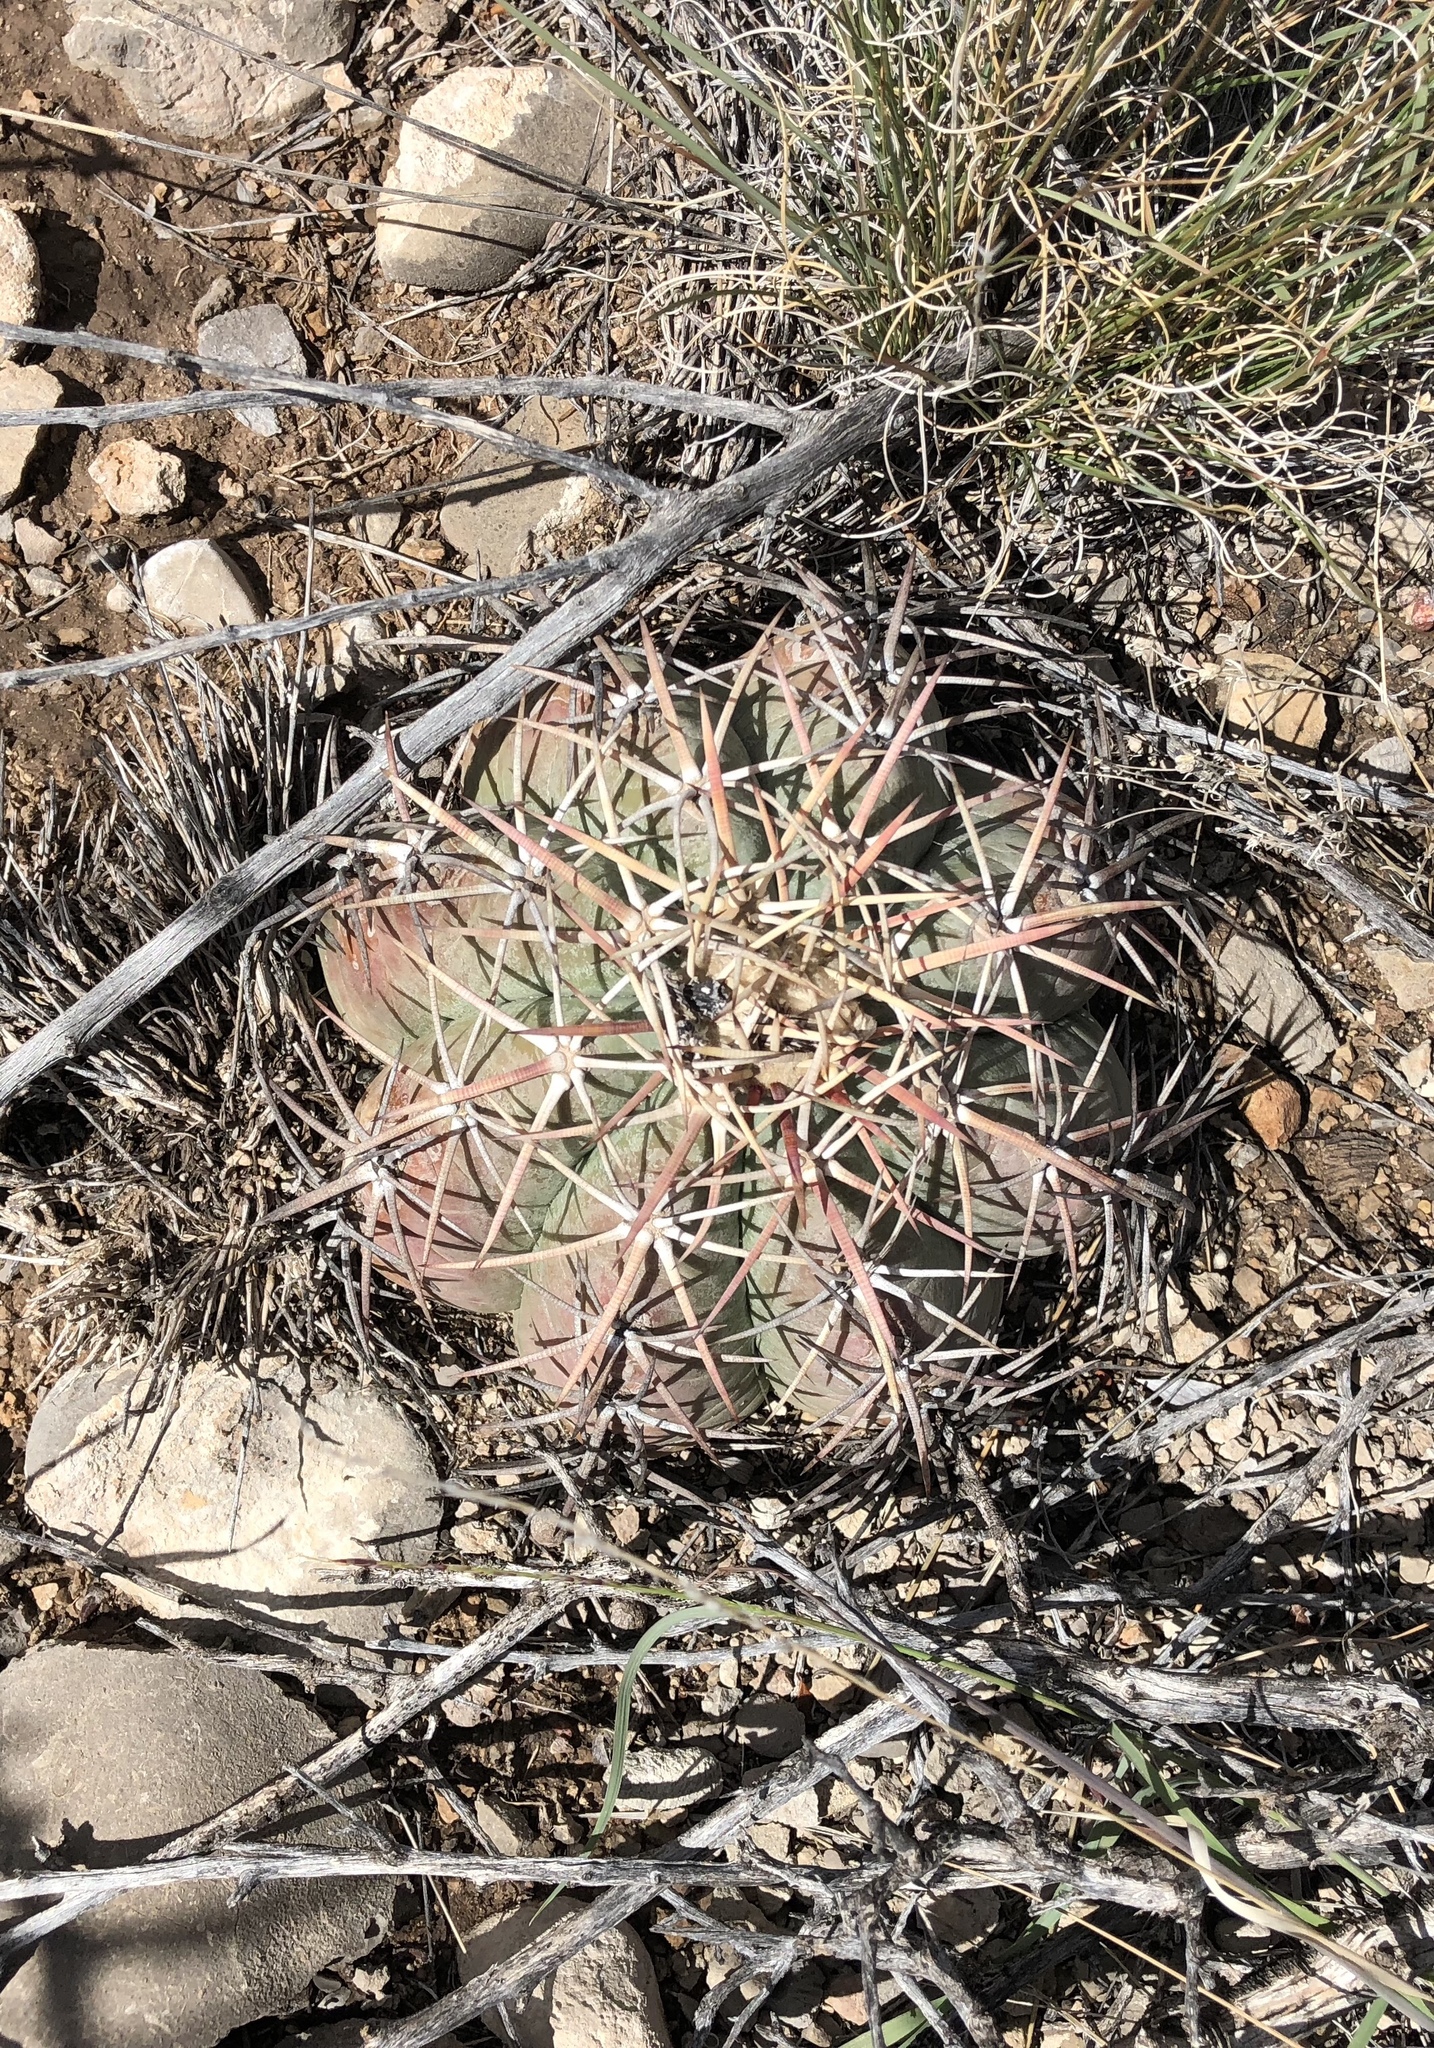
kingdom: Plantae
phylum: Tracheophyta
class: Magnoliopsida
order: Caryophyllales
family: Cactaceae
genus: Echinocactus
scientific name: Echinocactus horizonthalonius
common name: Devilshead
